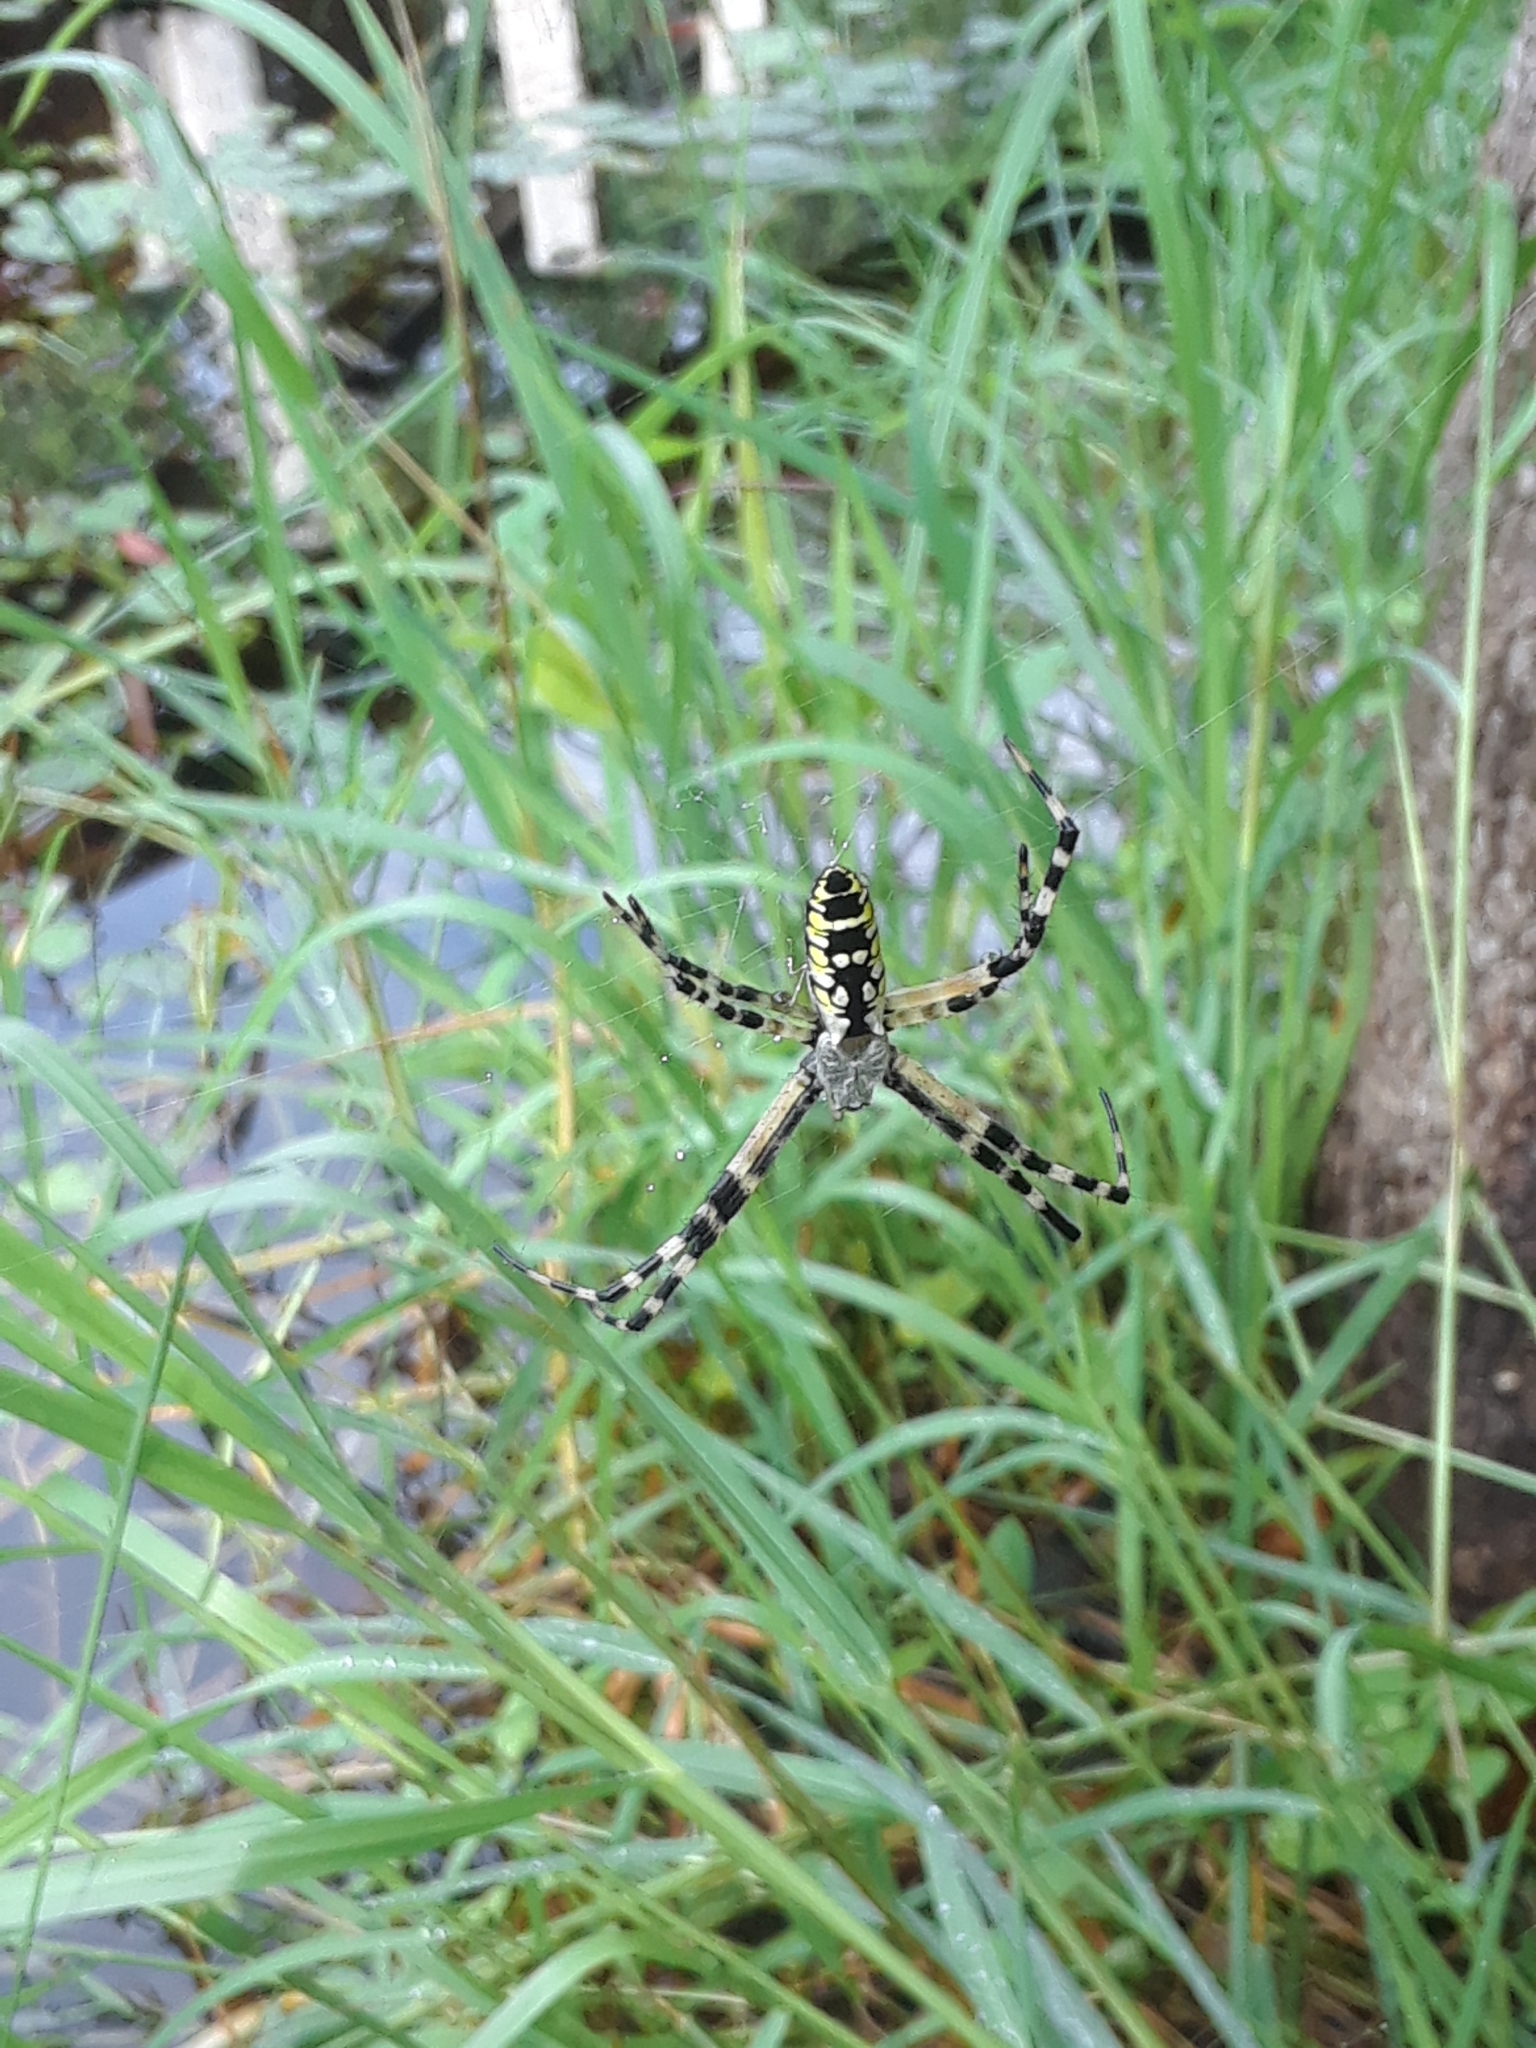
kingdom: Animalia
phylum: Arthropoda
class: Arachnida
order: Araneae
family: Araneidae
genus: Argiope
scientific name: Argiope aurantia
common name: Orb weavers
